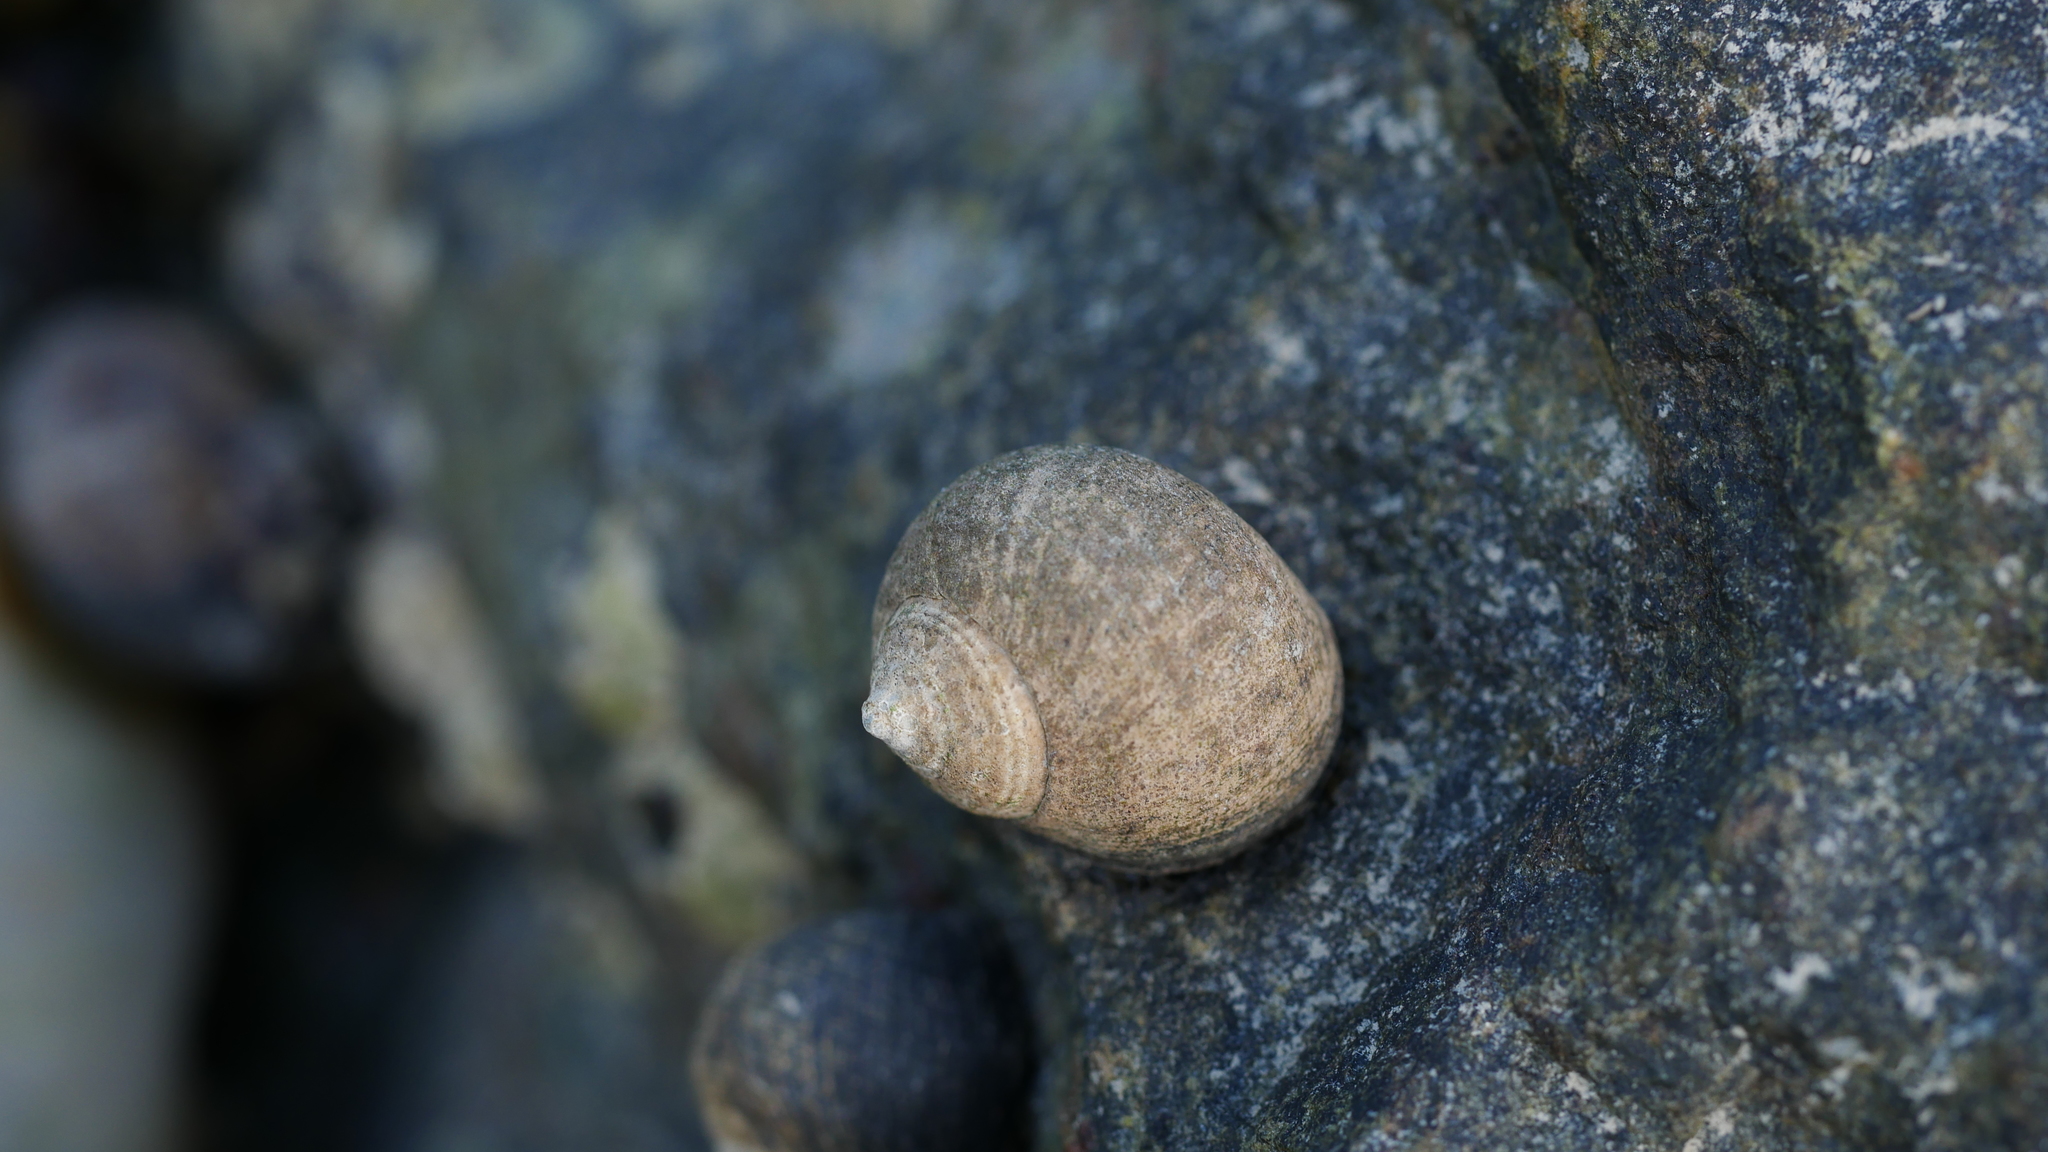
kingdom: Animalia
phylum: Mollusca
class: Gastropoda
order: Littorinimorpha
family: Littorinidae
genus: Littorina
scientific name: Littorina littorea
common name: Common periwinkle
